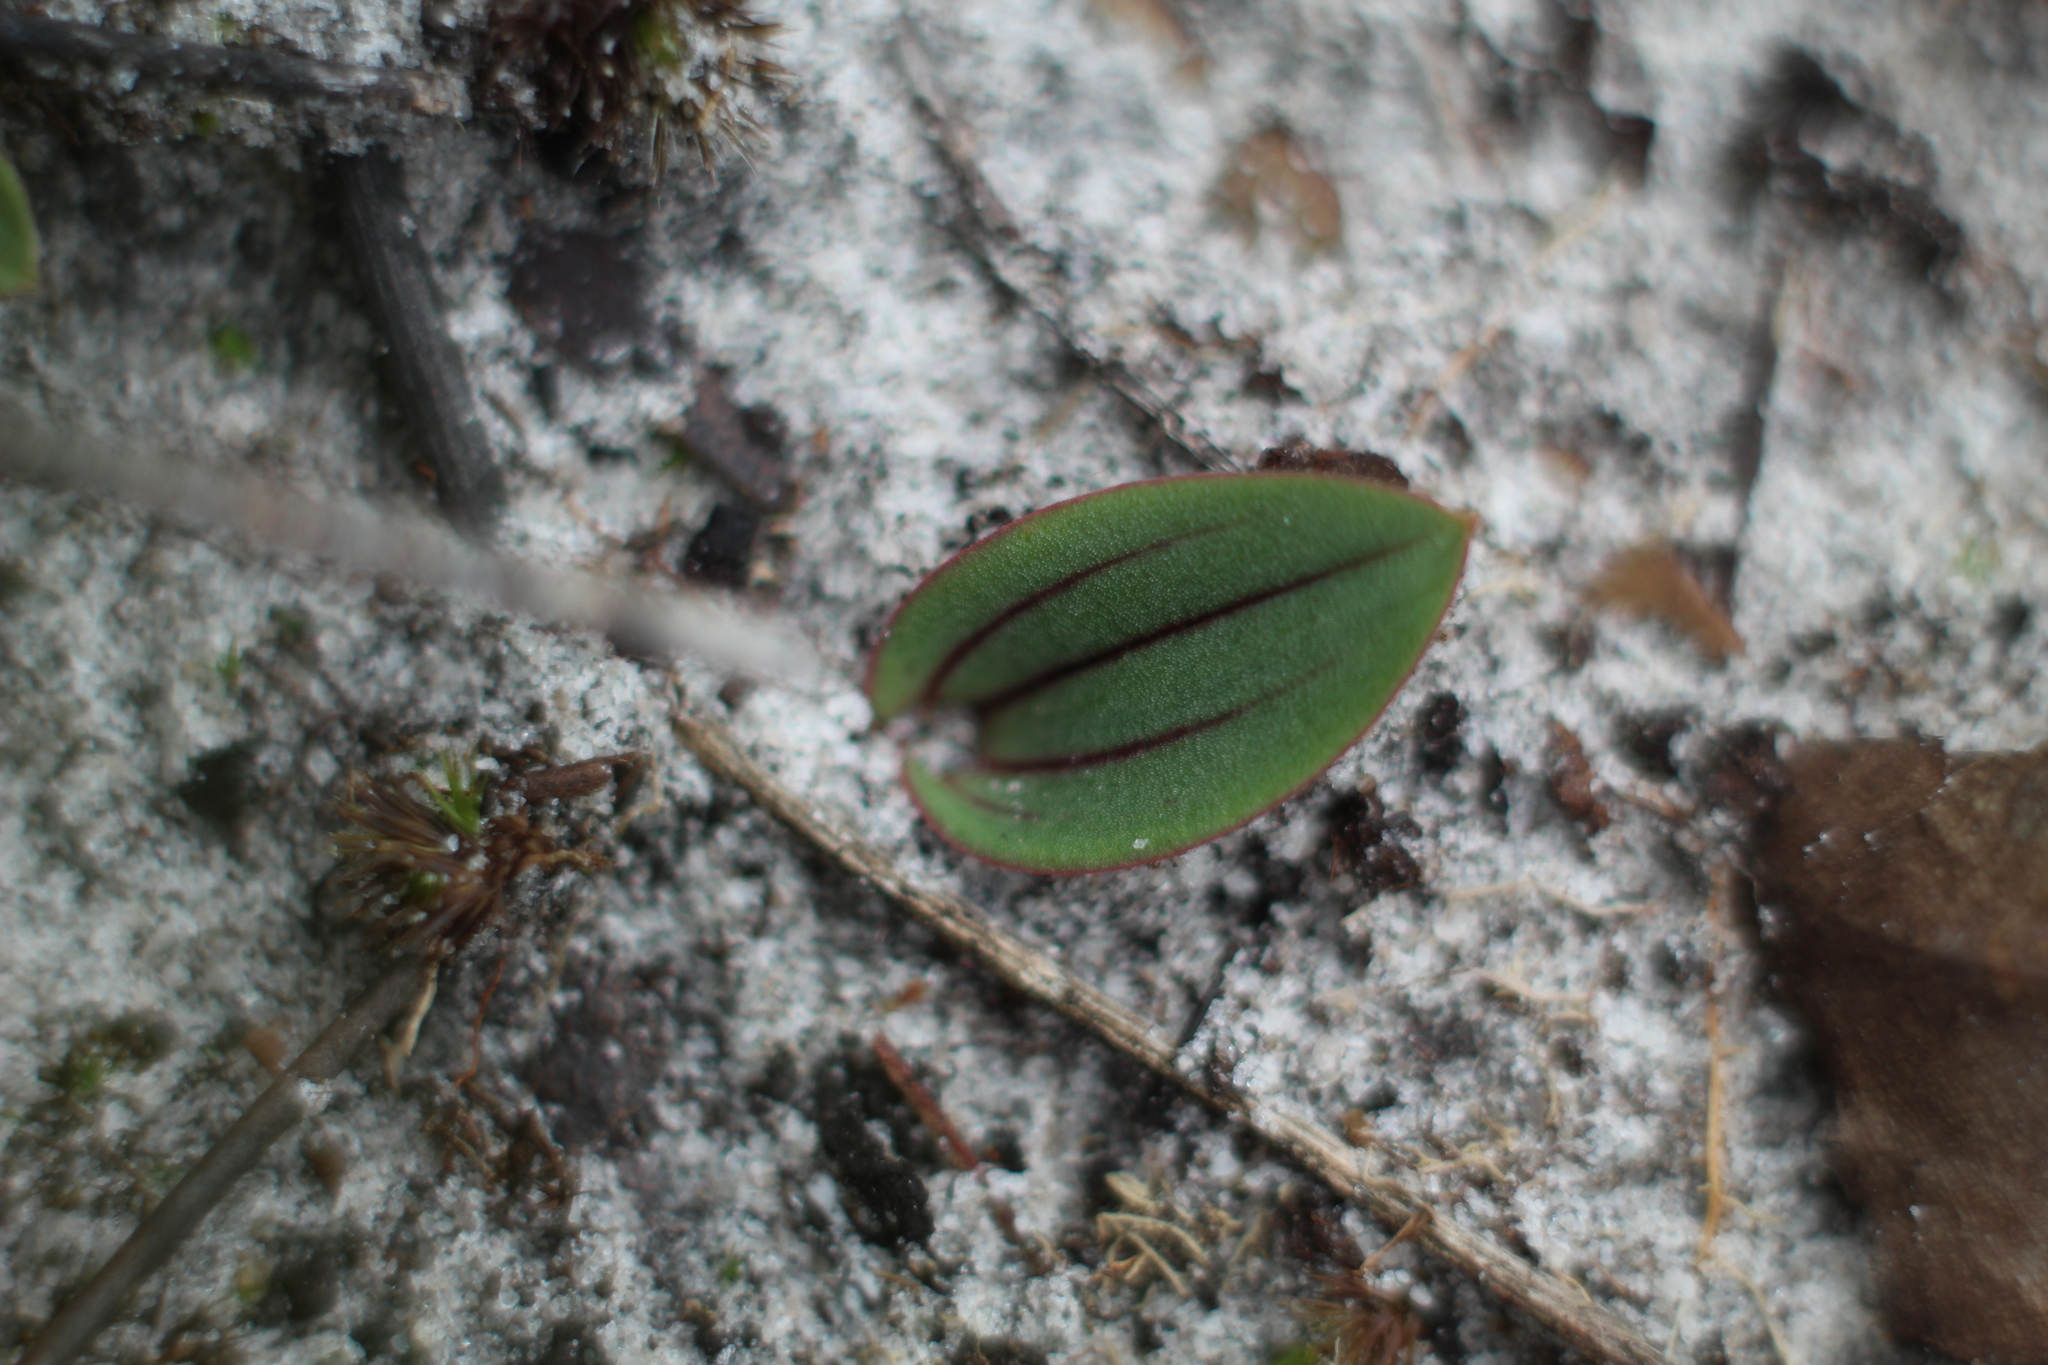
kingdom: Plantae
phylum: Tracheophyta
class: Liliopsida
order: Asparagales
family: Orchidaceae
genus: Leporella
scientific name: Leporella fimbriata
